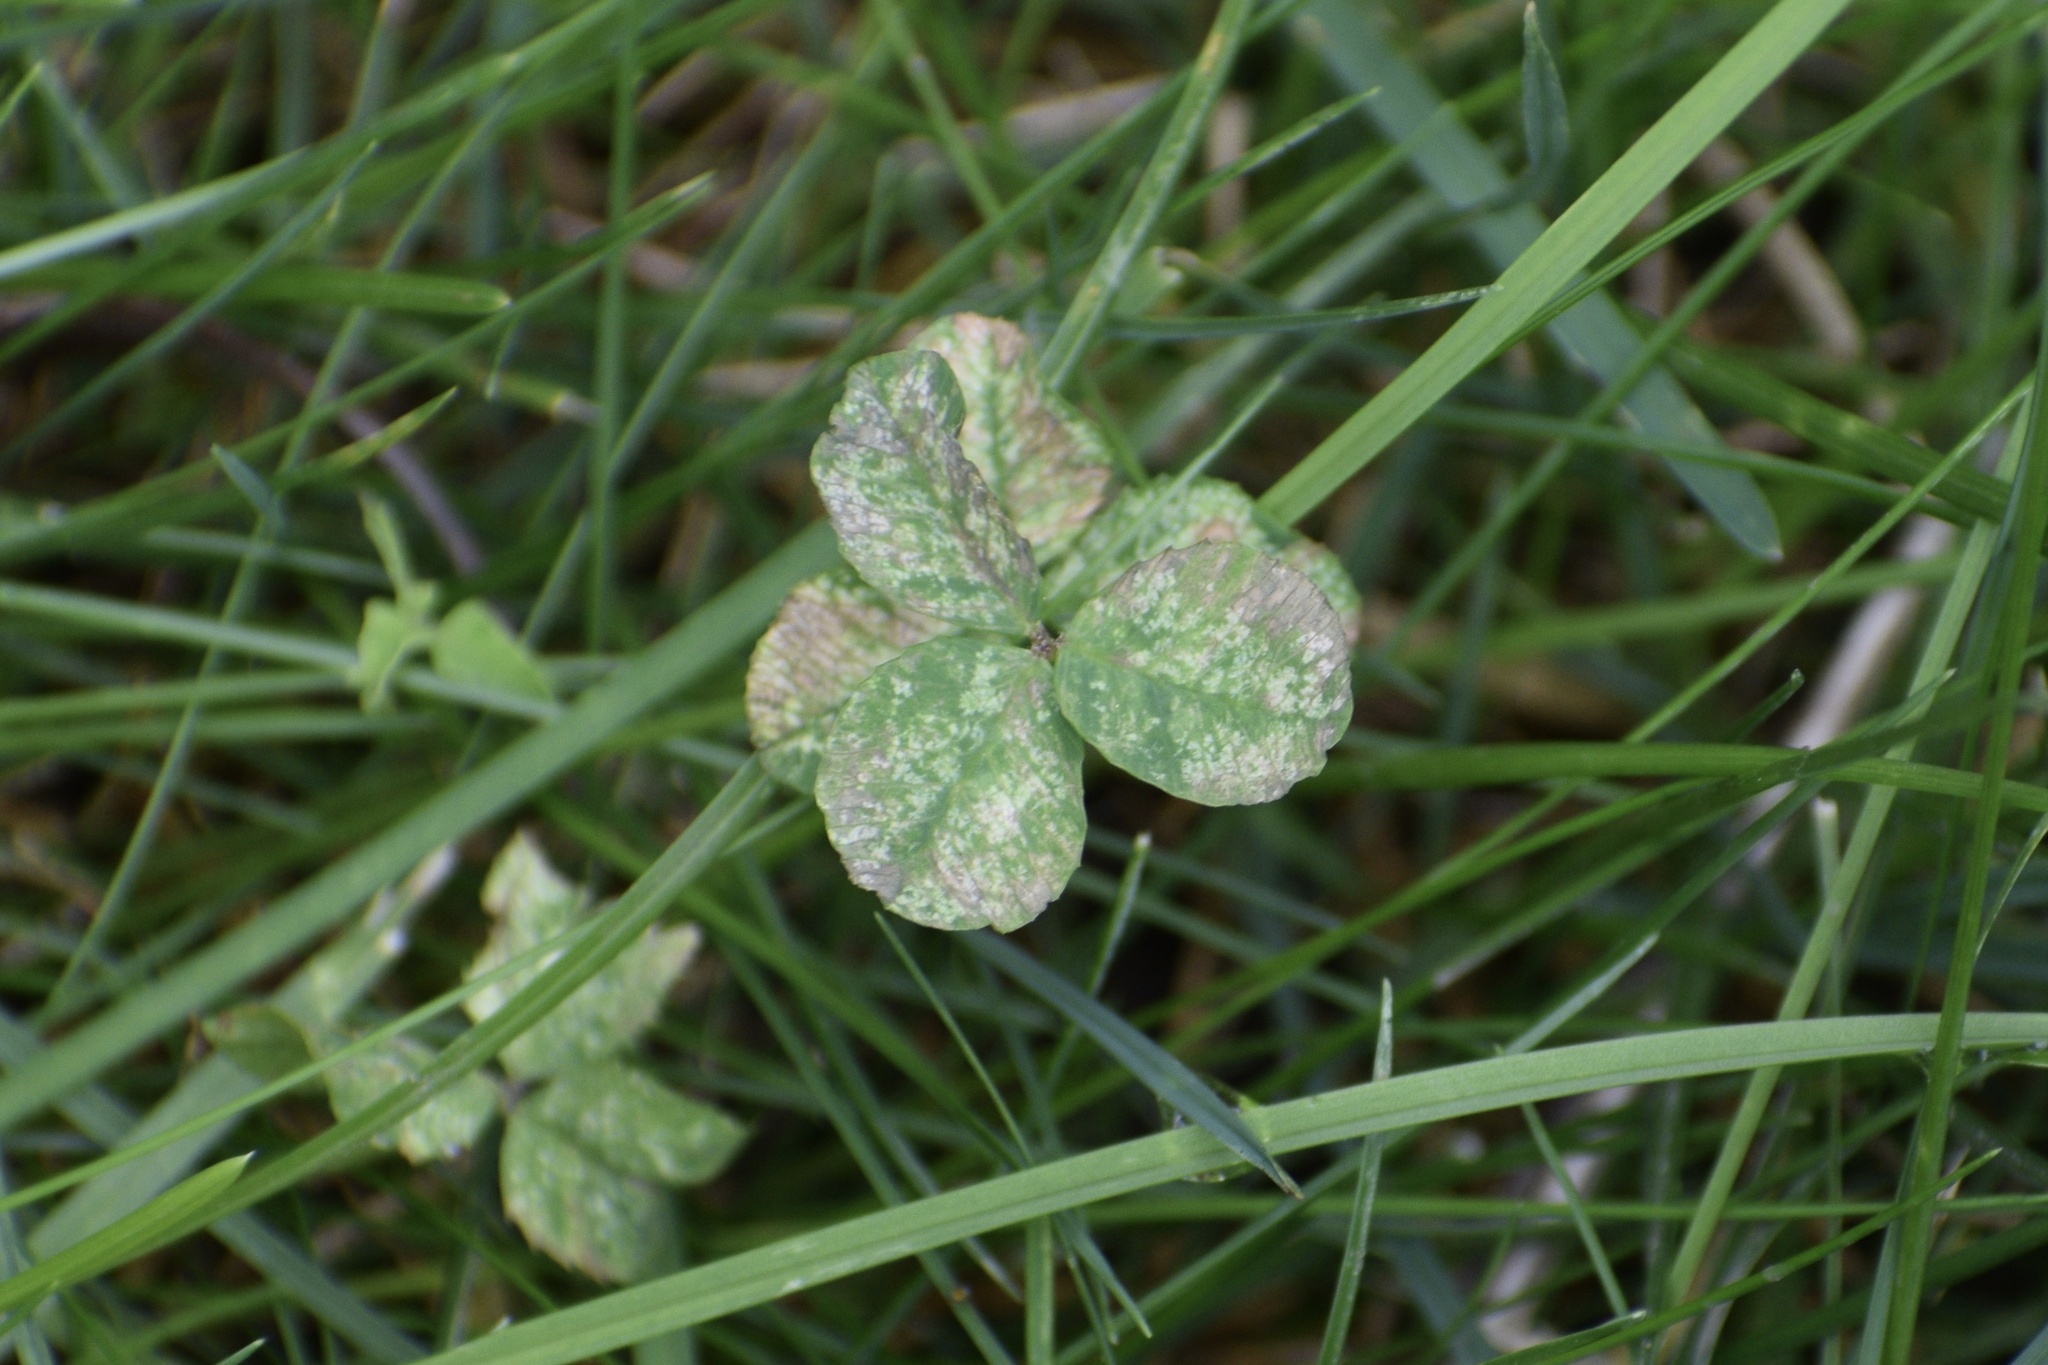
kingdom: Fungi
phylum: Ascomycota
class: Leotiomycetes
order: Helotiales
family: Erysiphaceae
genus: Erysiphe
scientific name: Erysiphe trifoliorum
